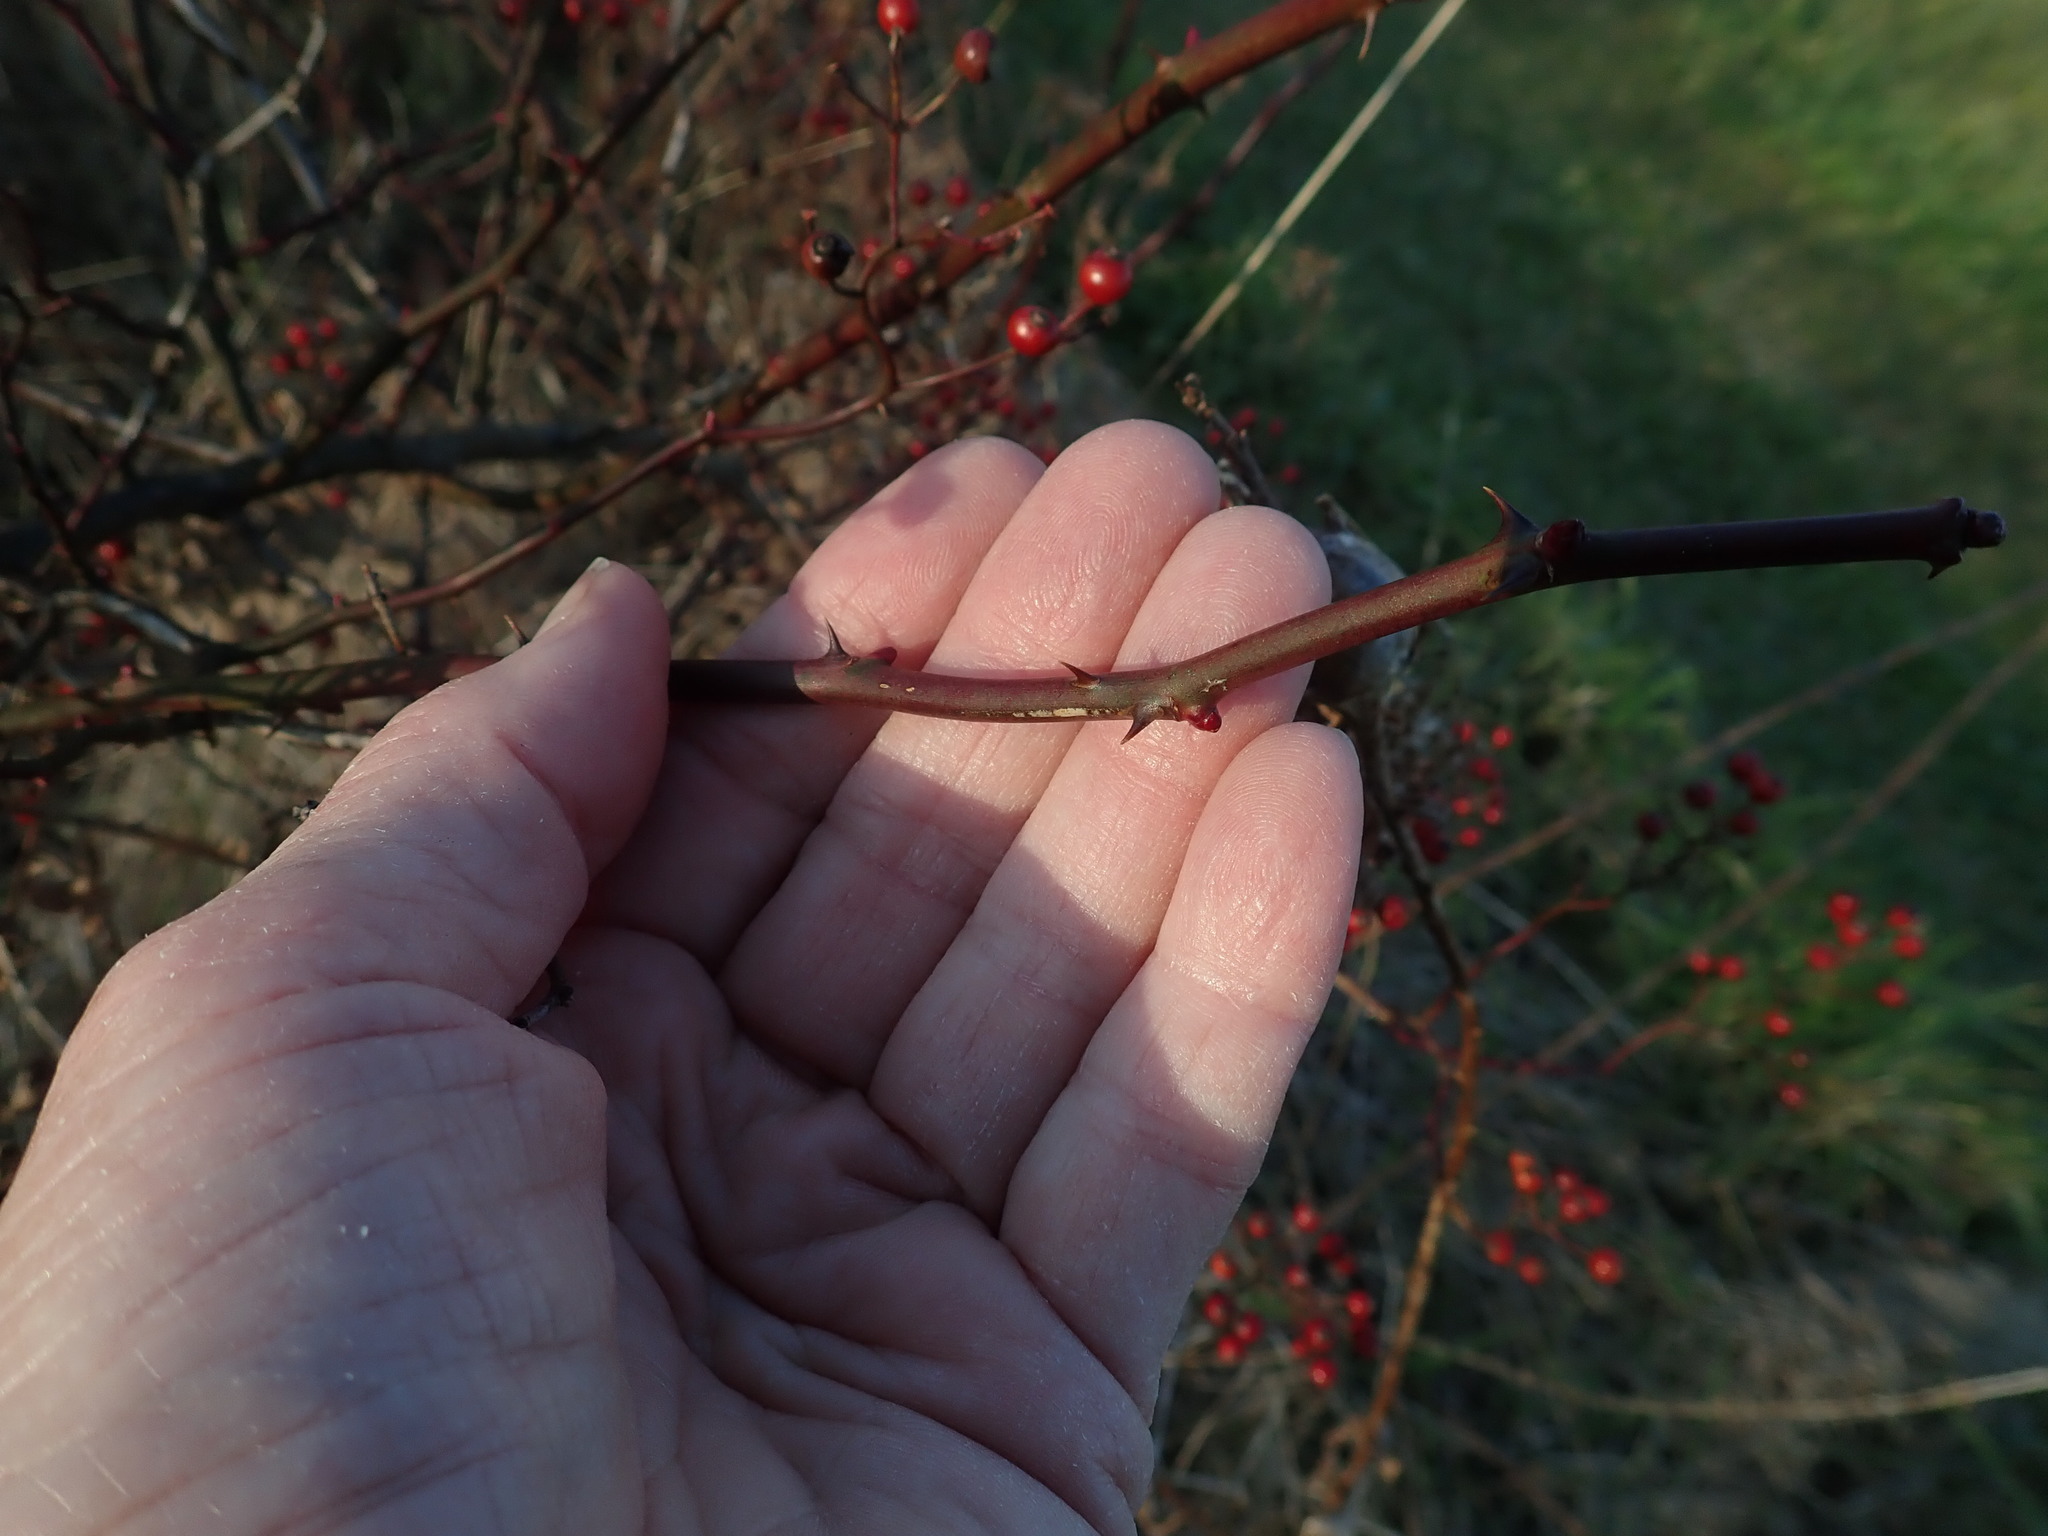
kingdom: Plantae
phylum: Tracheophyta
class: Magnoliopsida
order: Rosales
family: Rosaceae
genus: Rosa
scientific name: Rosa multiflora
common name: Multiflora rose
